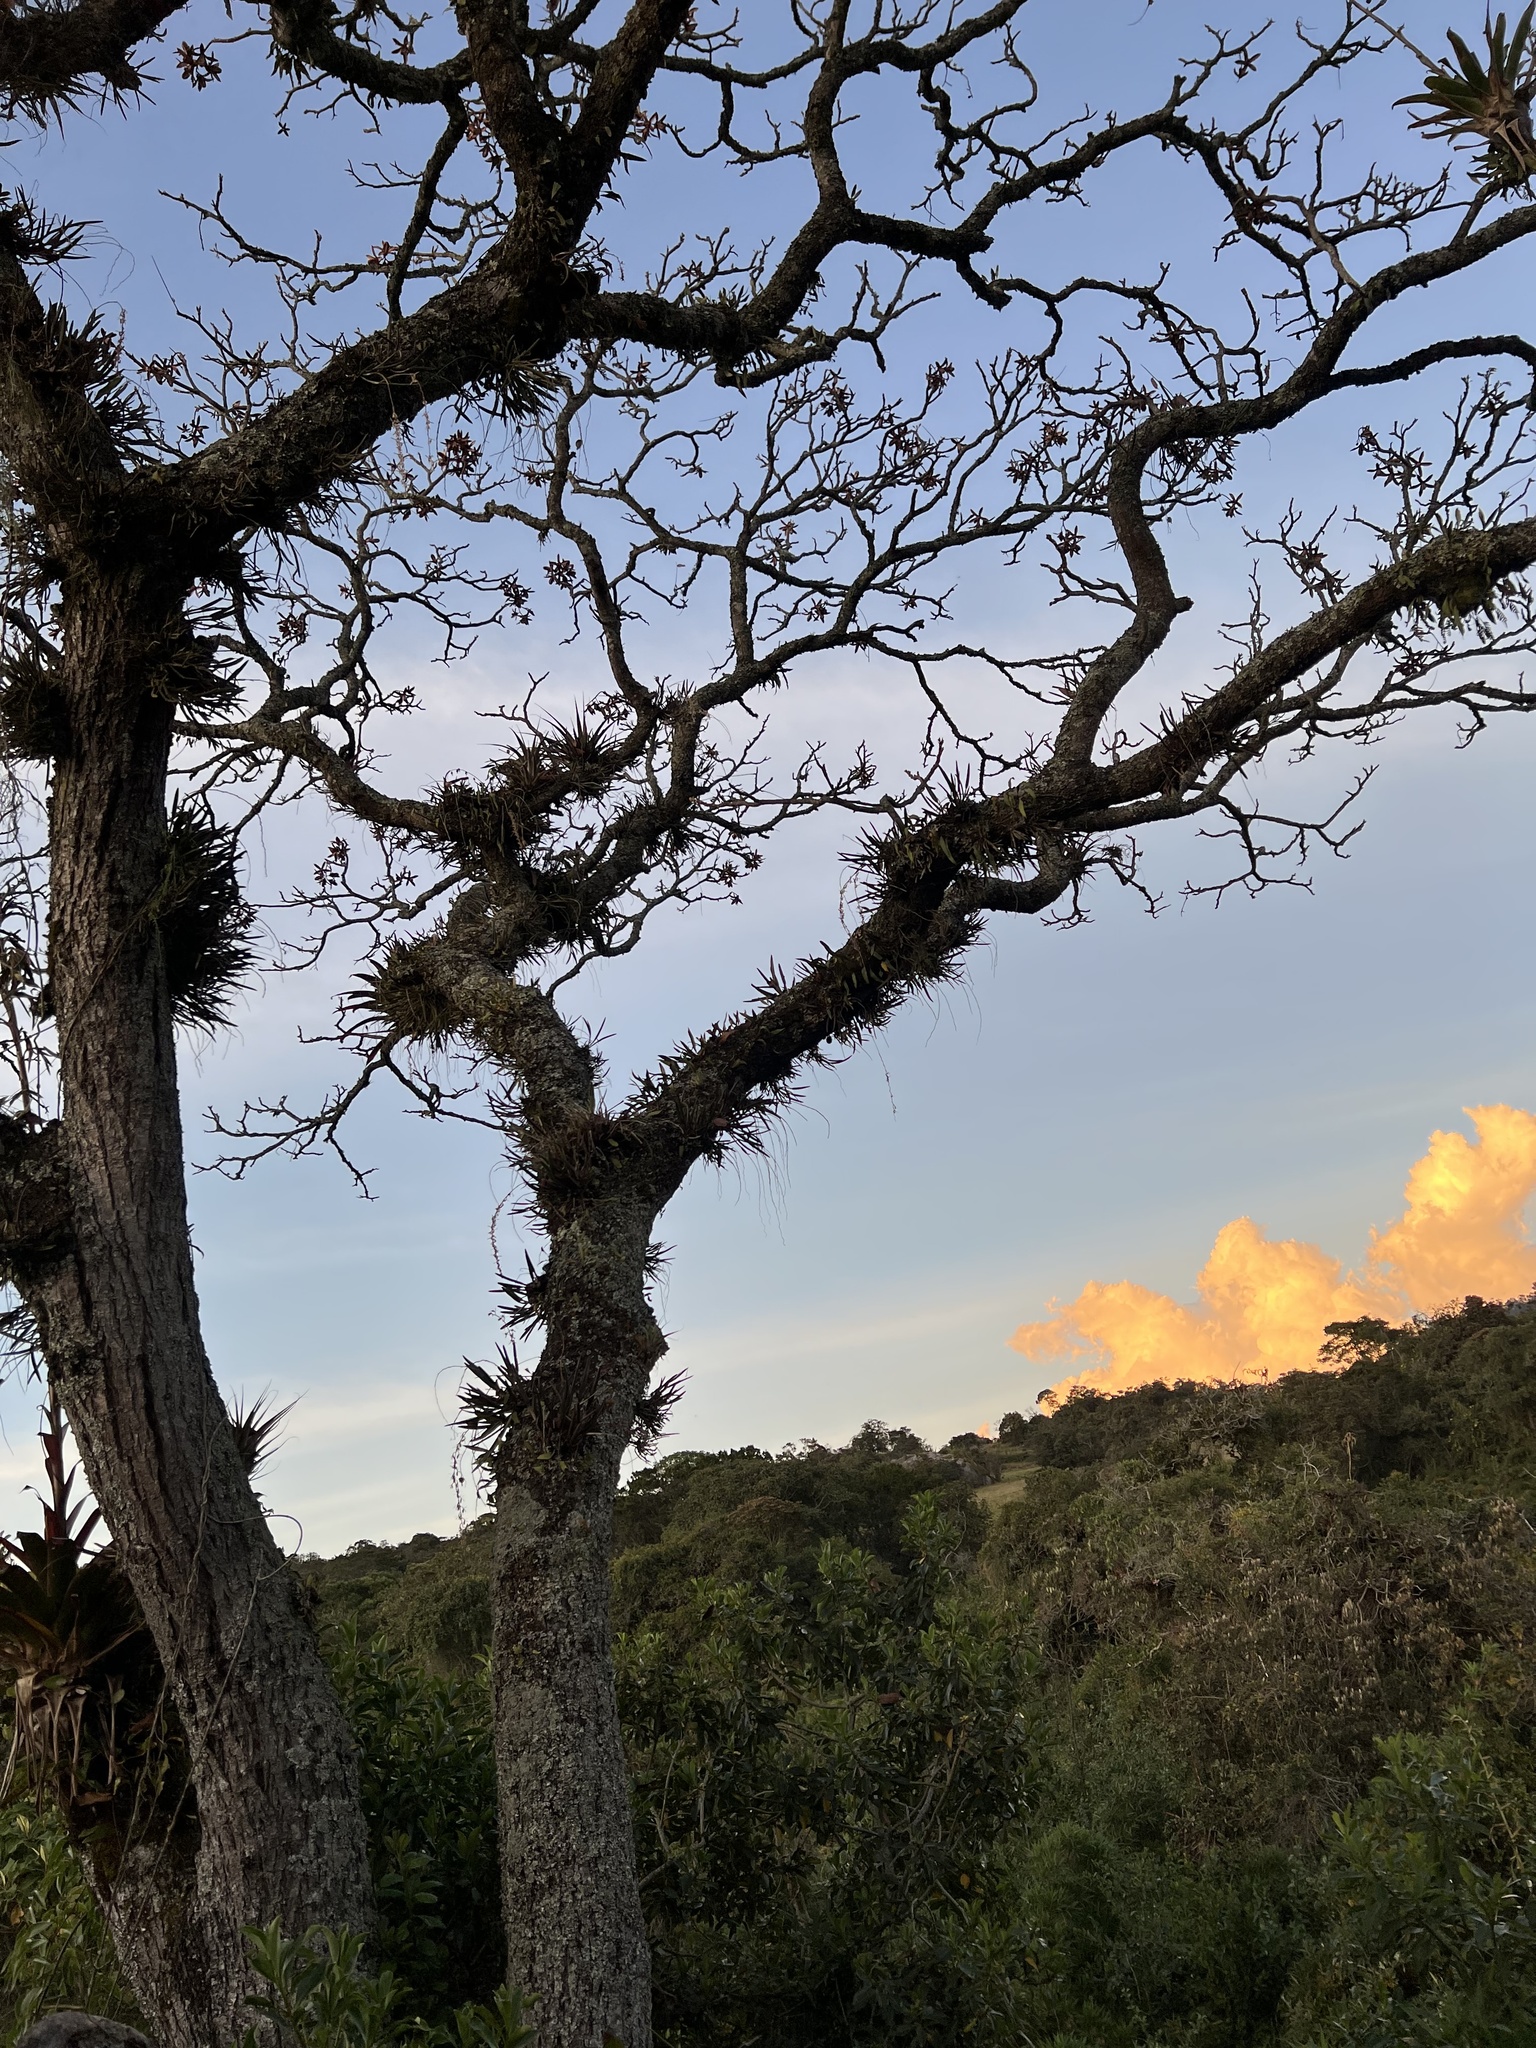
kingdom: Plantae
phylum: Tracheophyta
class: Magnoliopsida
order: Sapindales
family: Meliaceae
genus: Cedrela
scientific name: Cedrela montana
